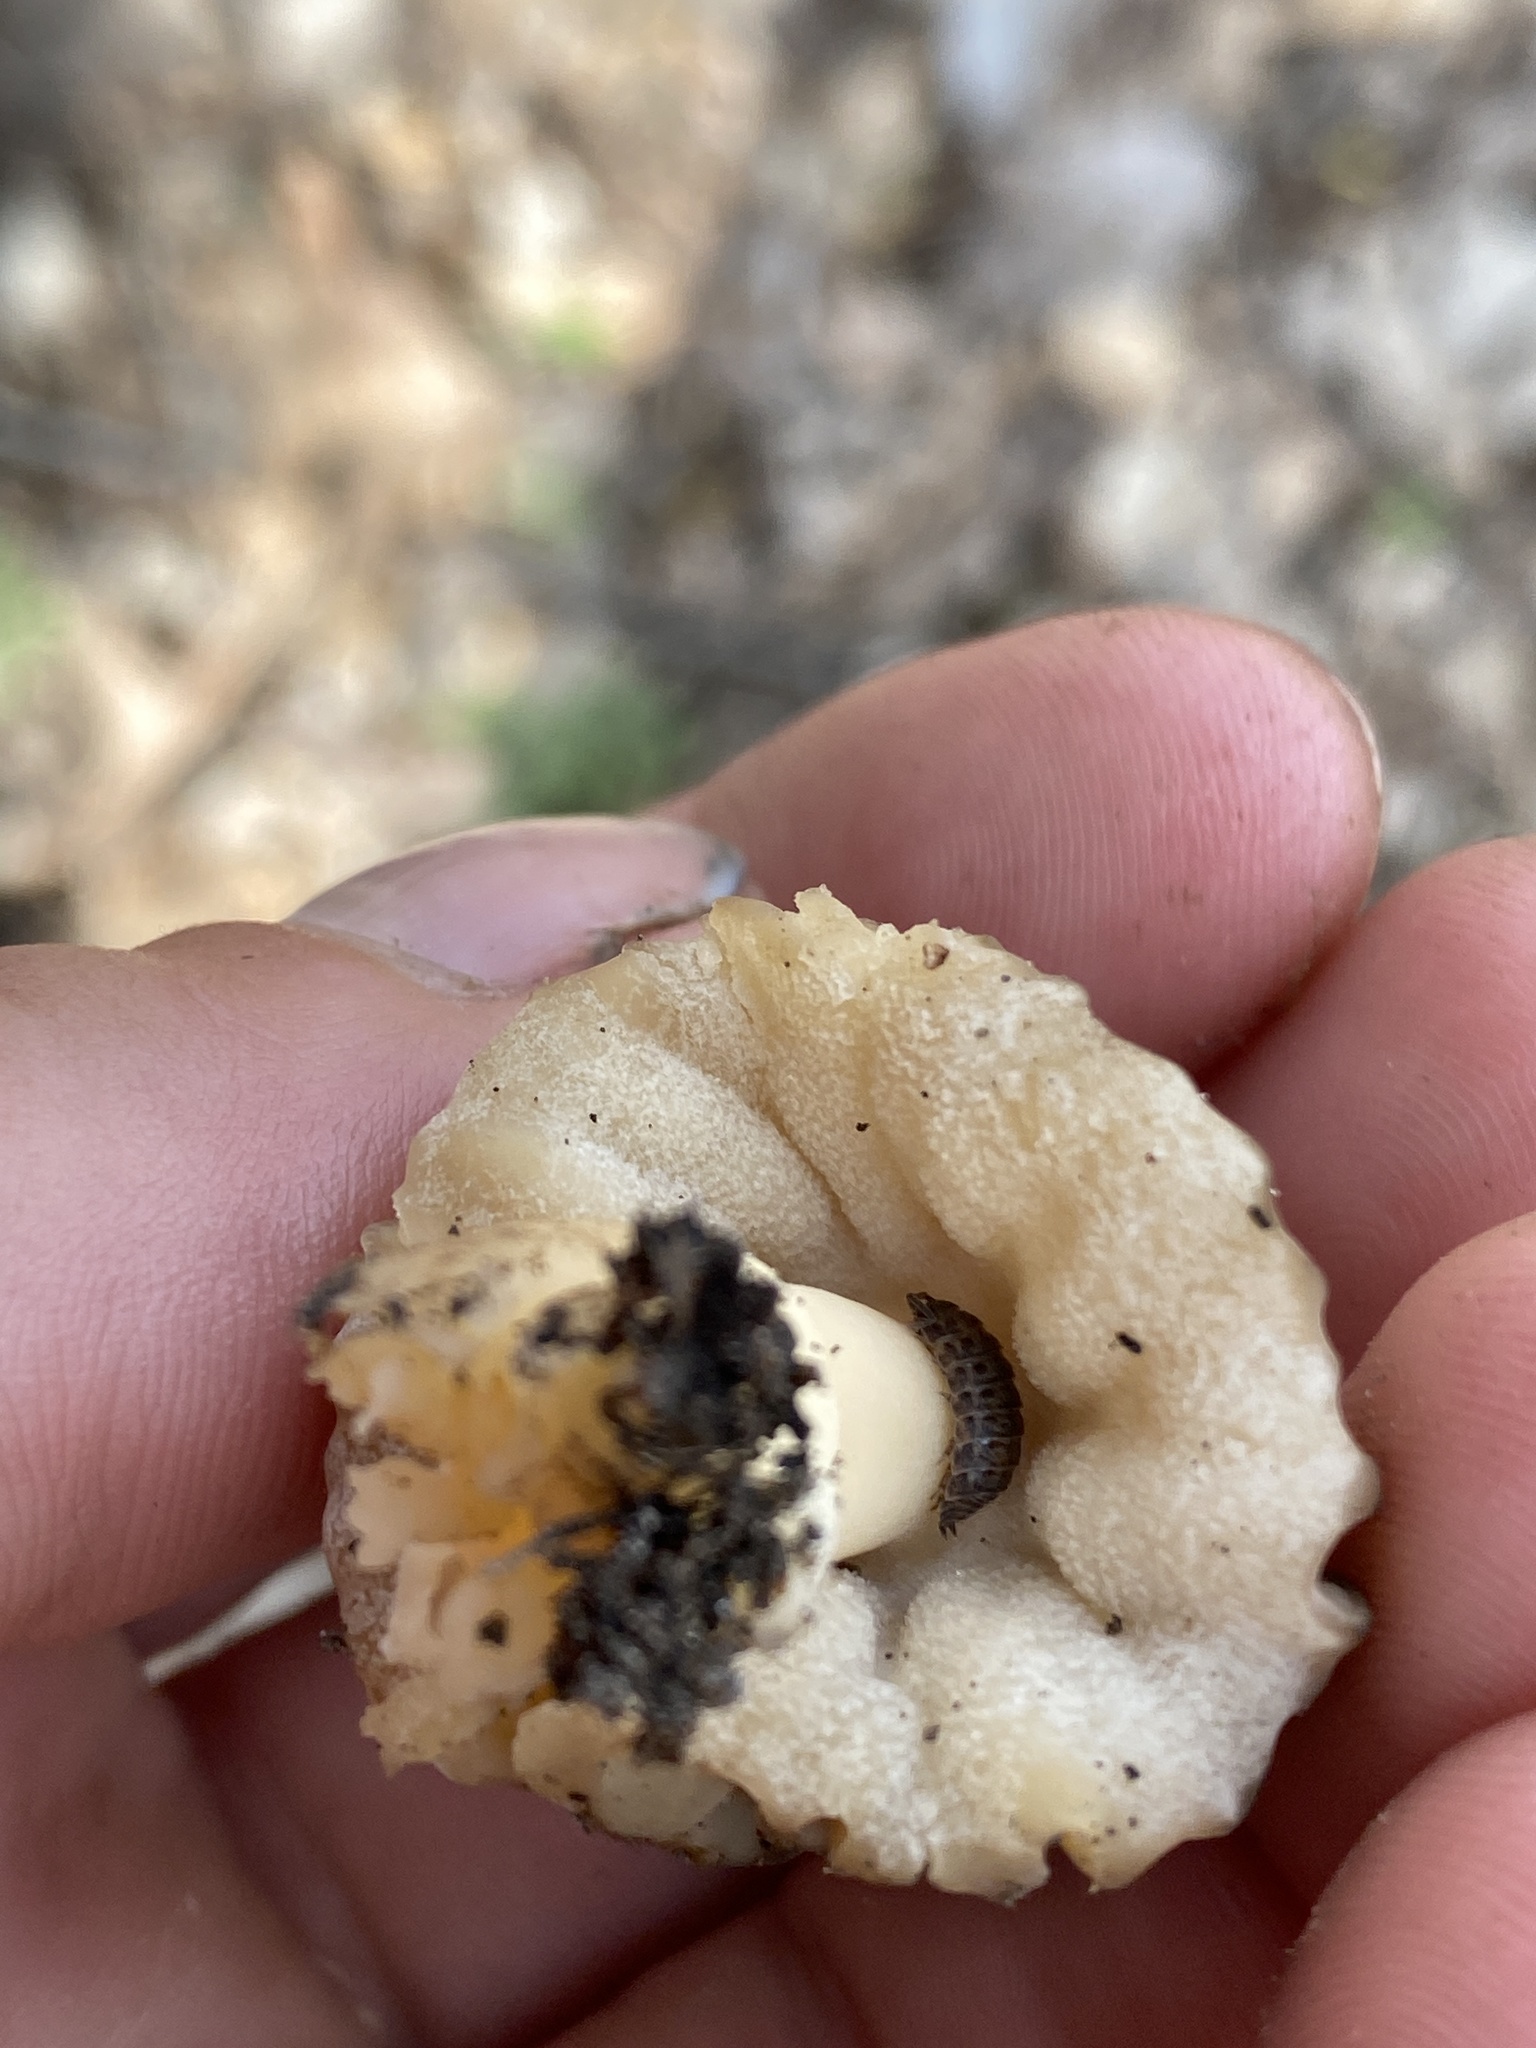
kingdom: Fungi
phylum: Ascomycota
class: Pezizomycetes
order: Pezizales
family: Morchellaceae
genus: Morchella
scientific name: Morchella punctipes
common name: Half-free morel
